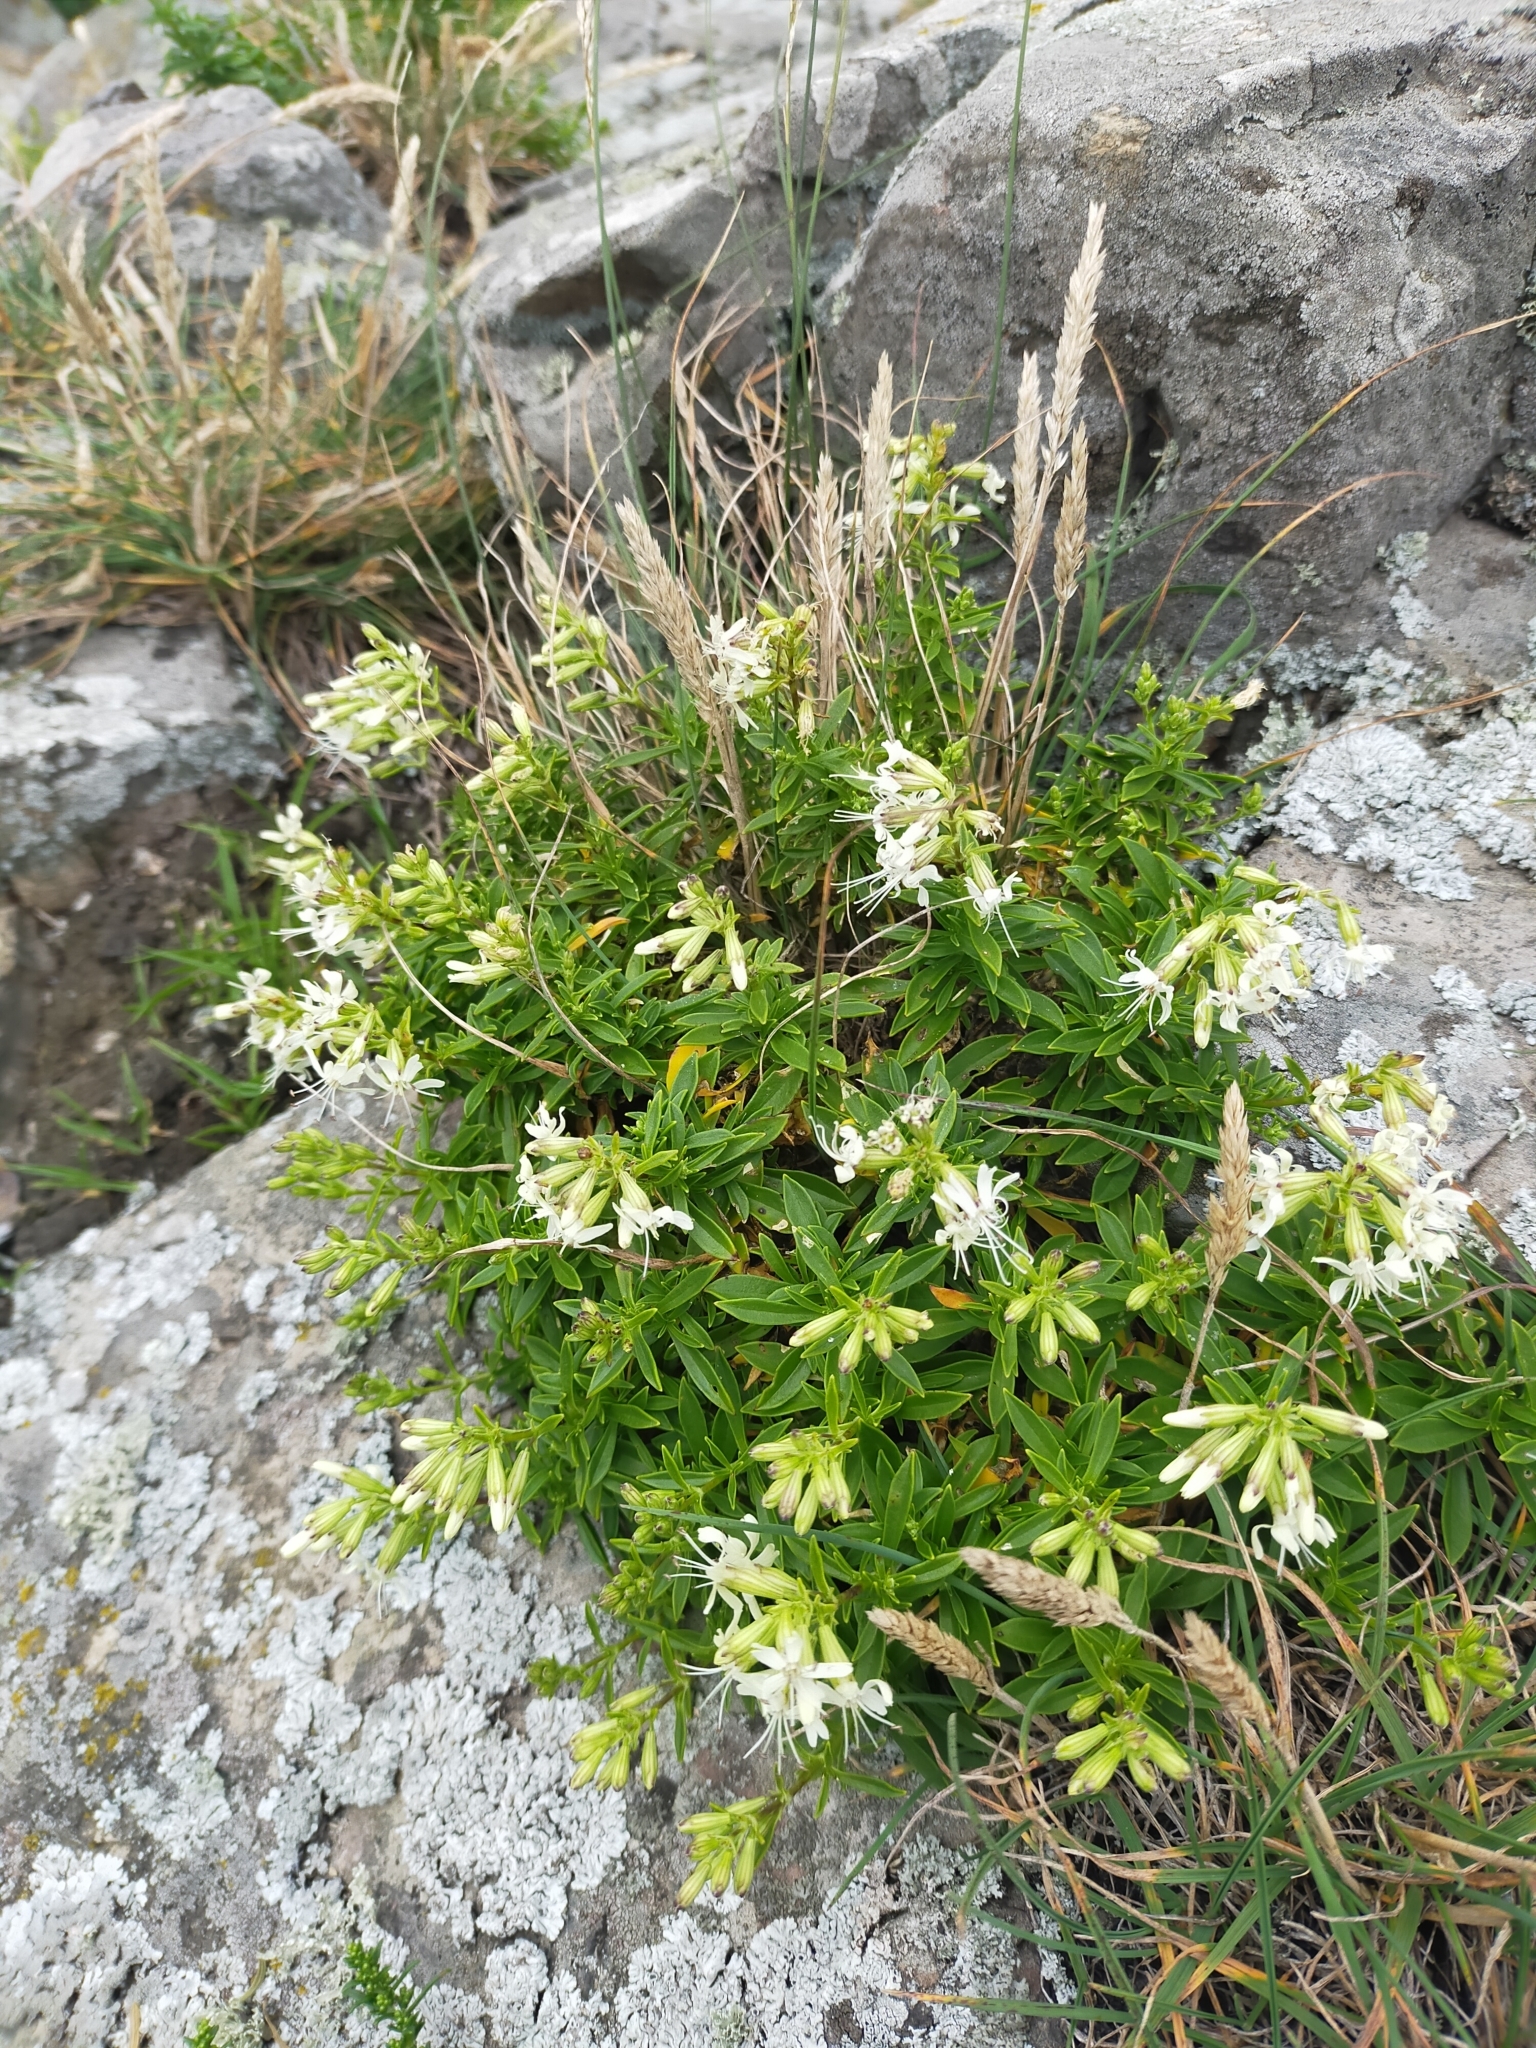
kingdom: Plantae
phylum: Tracheophyta
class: Magnoliopsida
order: Caryophyllales
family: Caryophyllaceae
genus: Silene
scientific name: Silene foliosa
